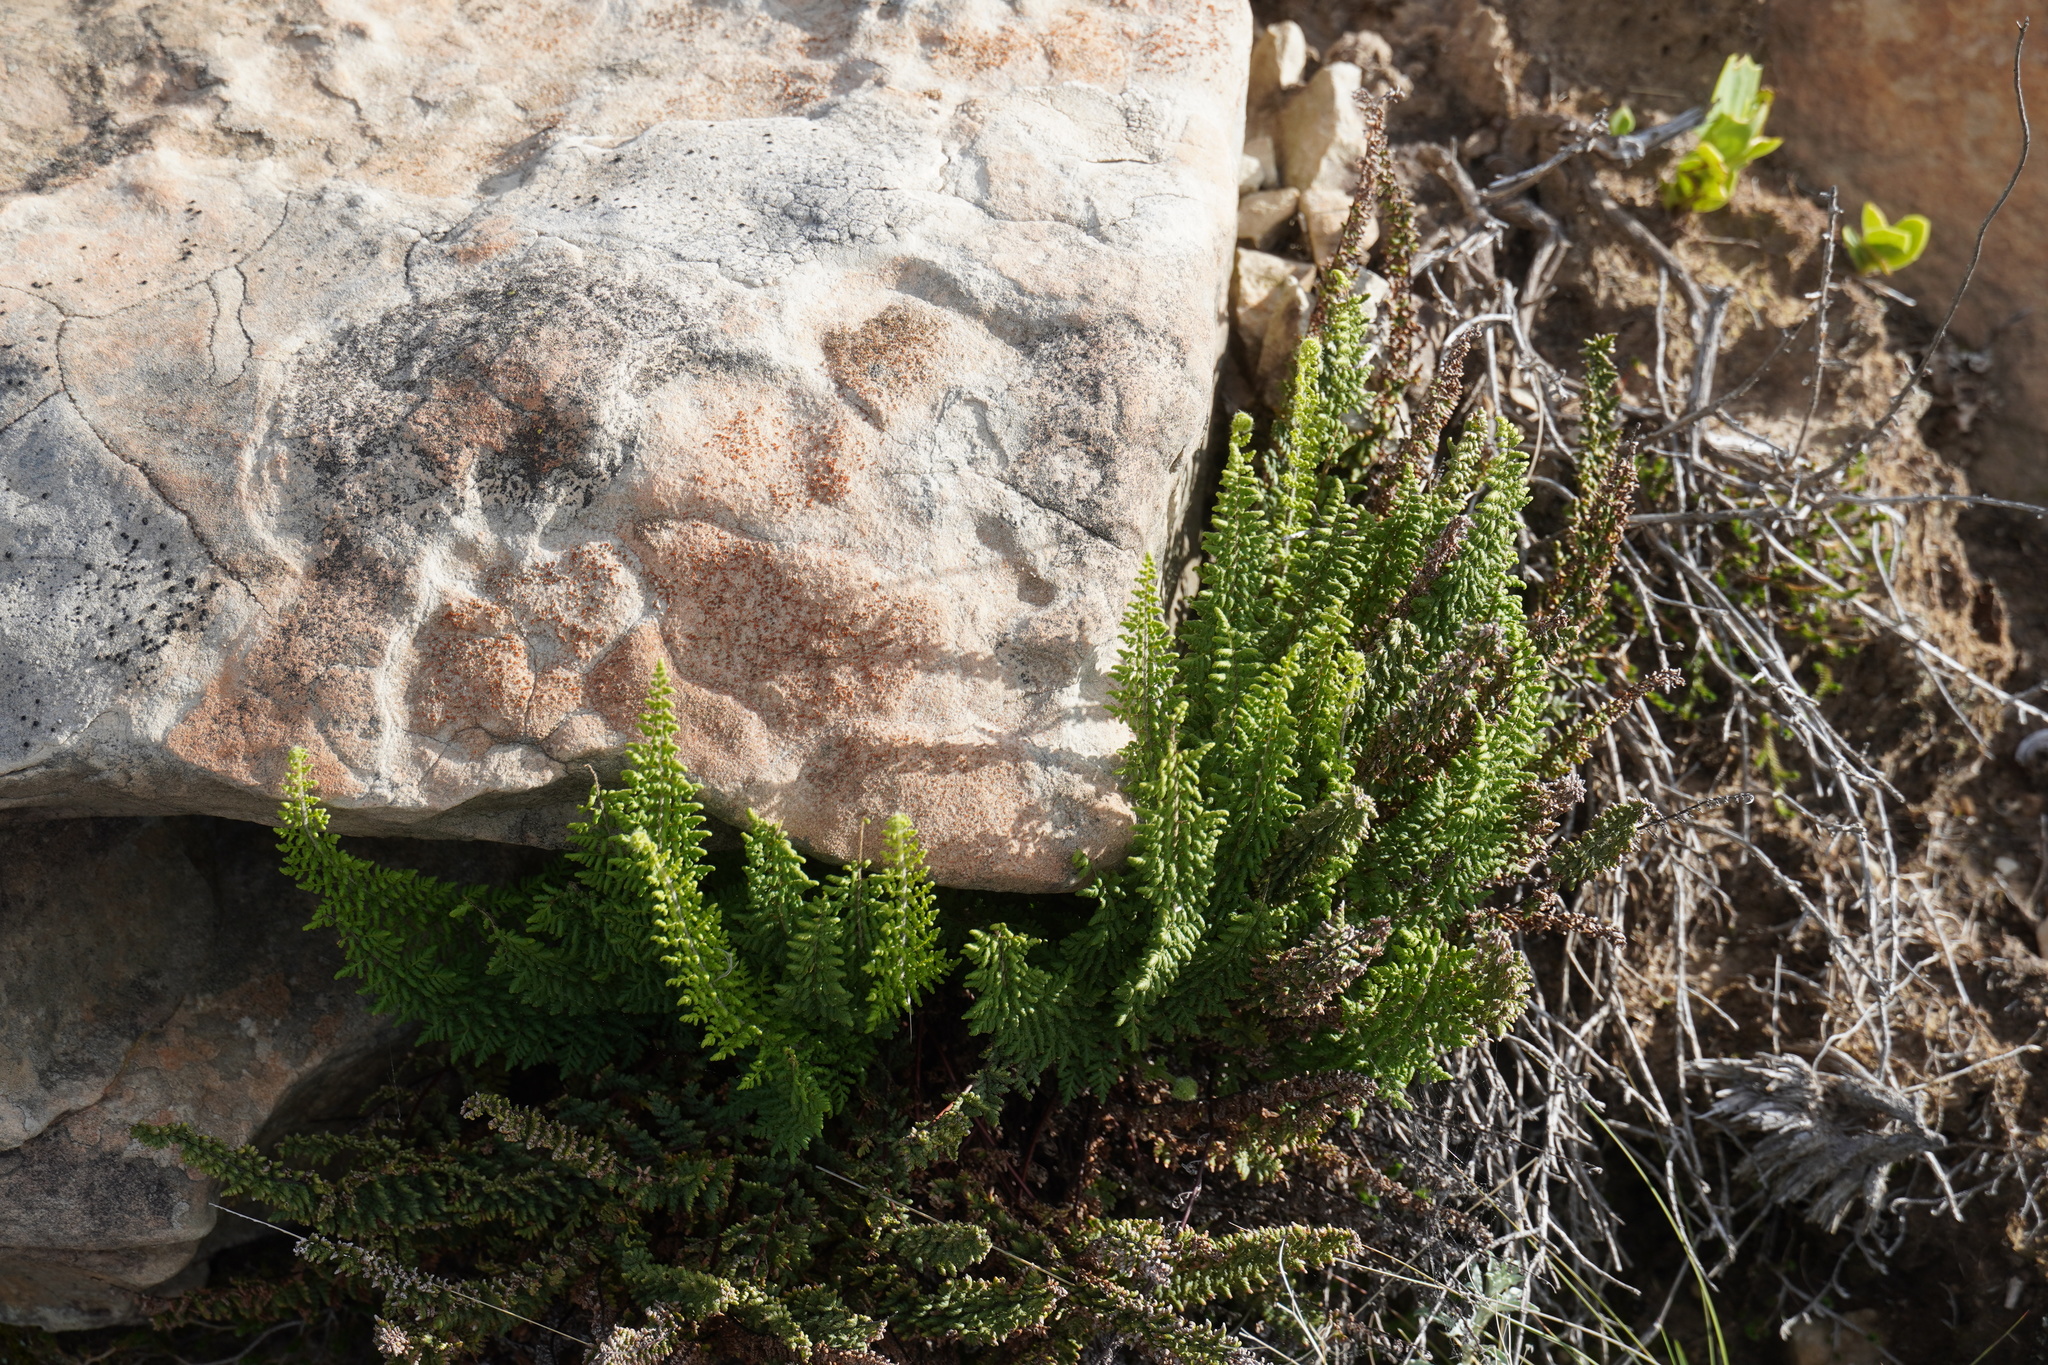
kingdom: Plantae
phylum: Tracheophyta
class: Polypodiopsida
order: Polypodiales
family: Pteridaceae
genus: Cheilanthes
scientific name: Cheilanthes hirta
